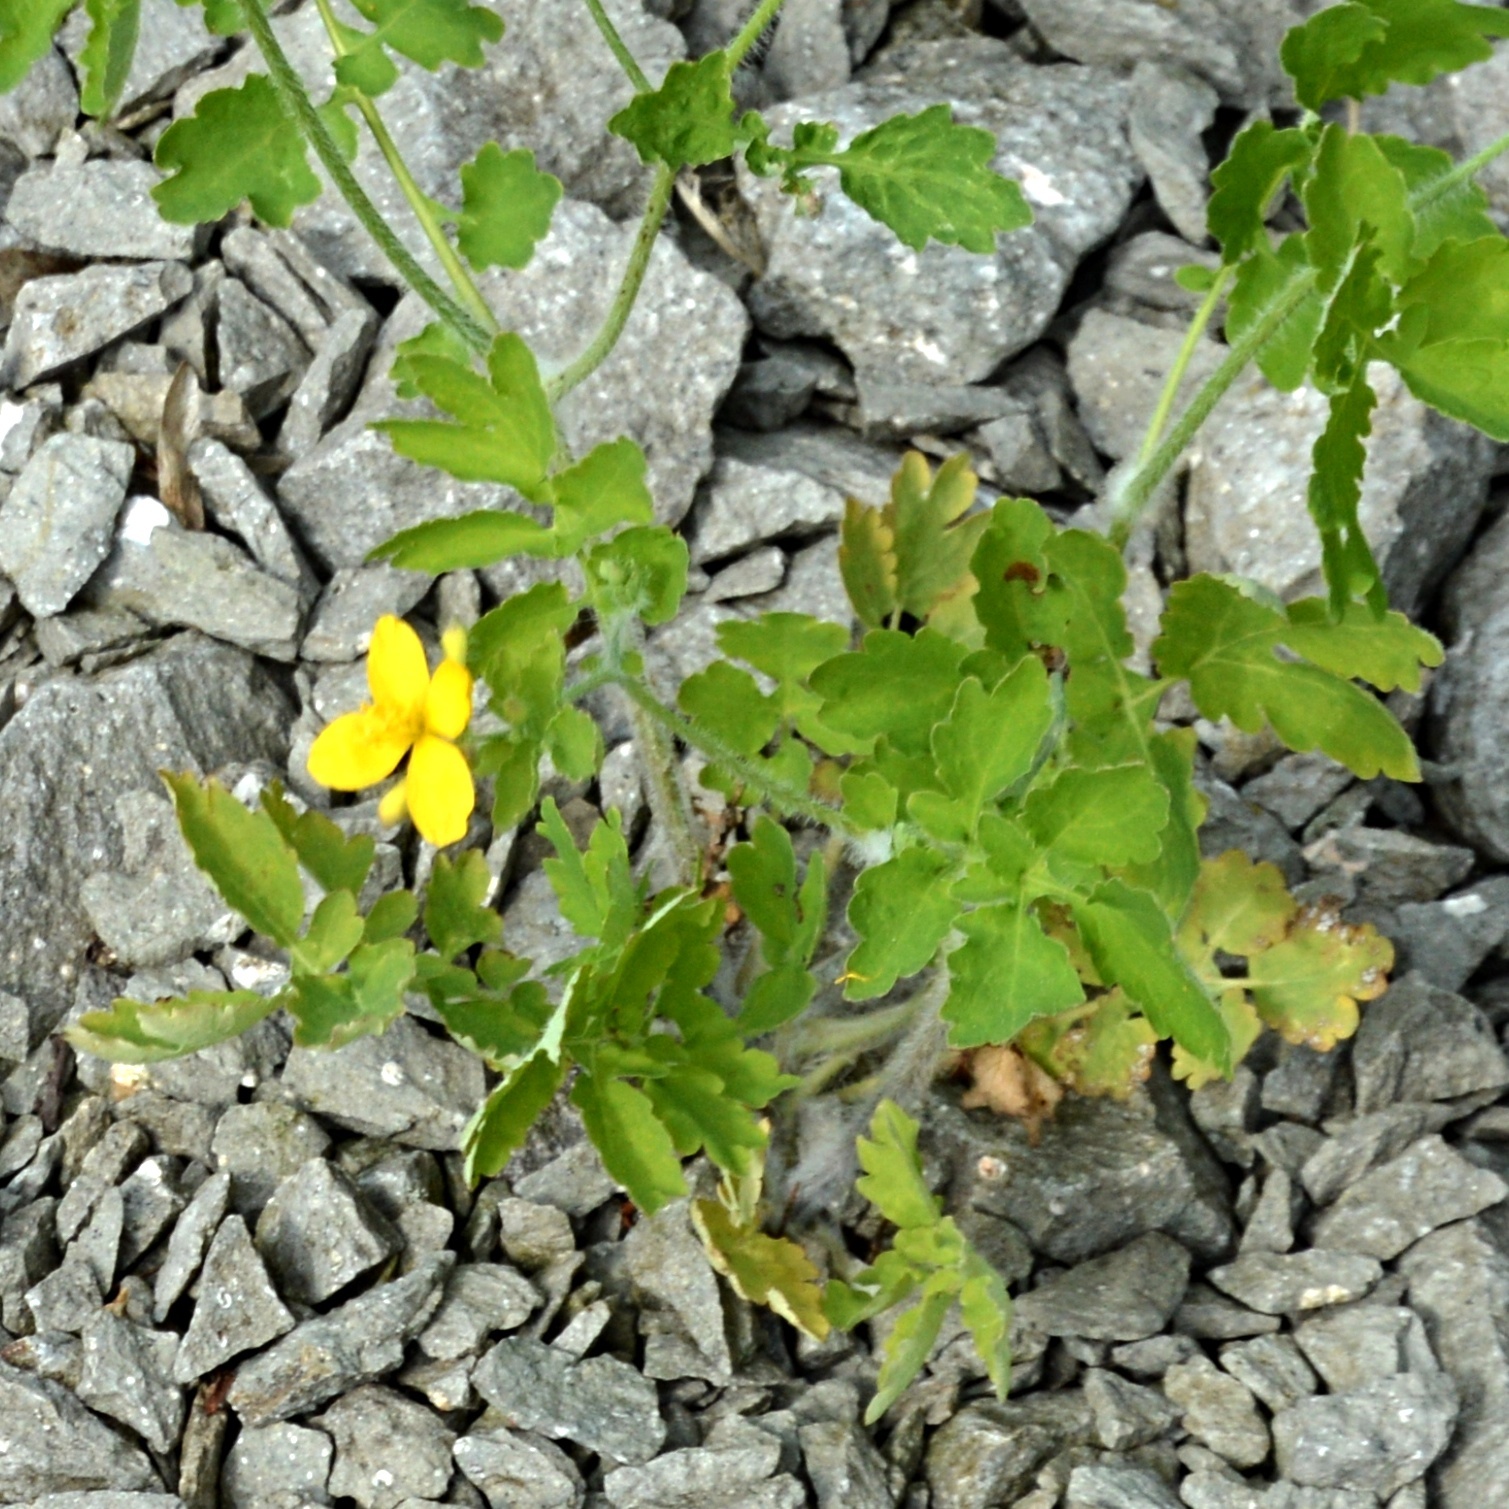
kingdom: Plantae
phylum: Tracheophyta
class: Magnoliopsida
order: Ranunculales
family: Papaveraceae
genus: Chelidonium
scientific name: Chelidonium majus
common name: Greater celandine
